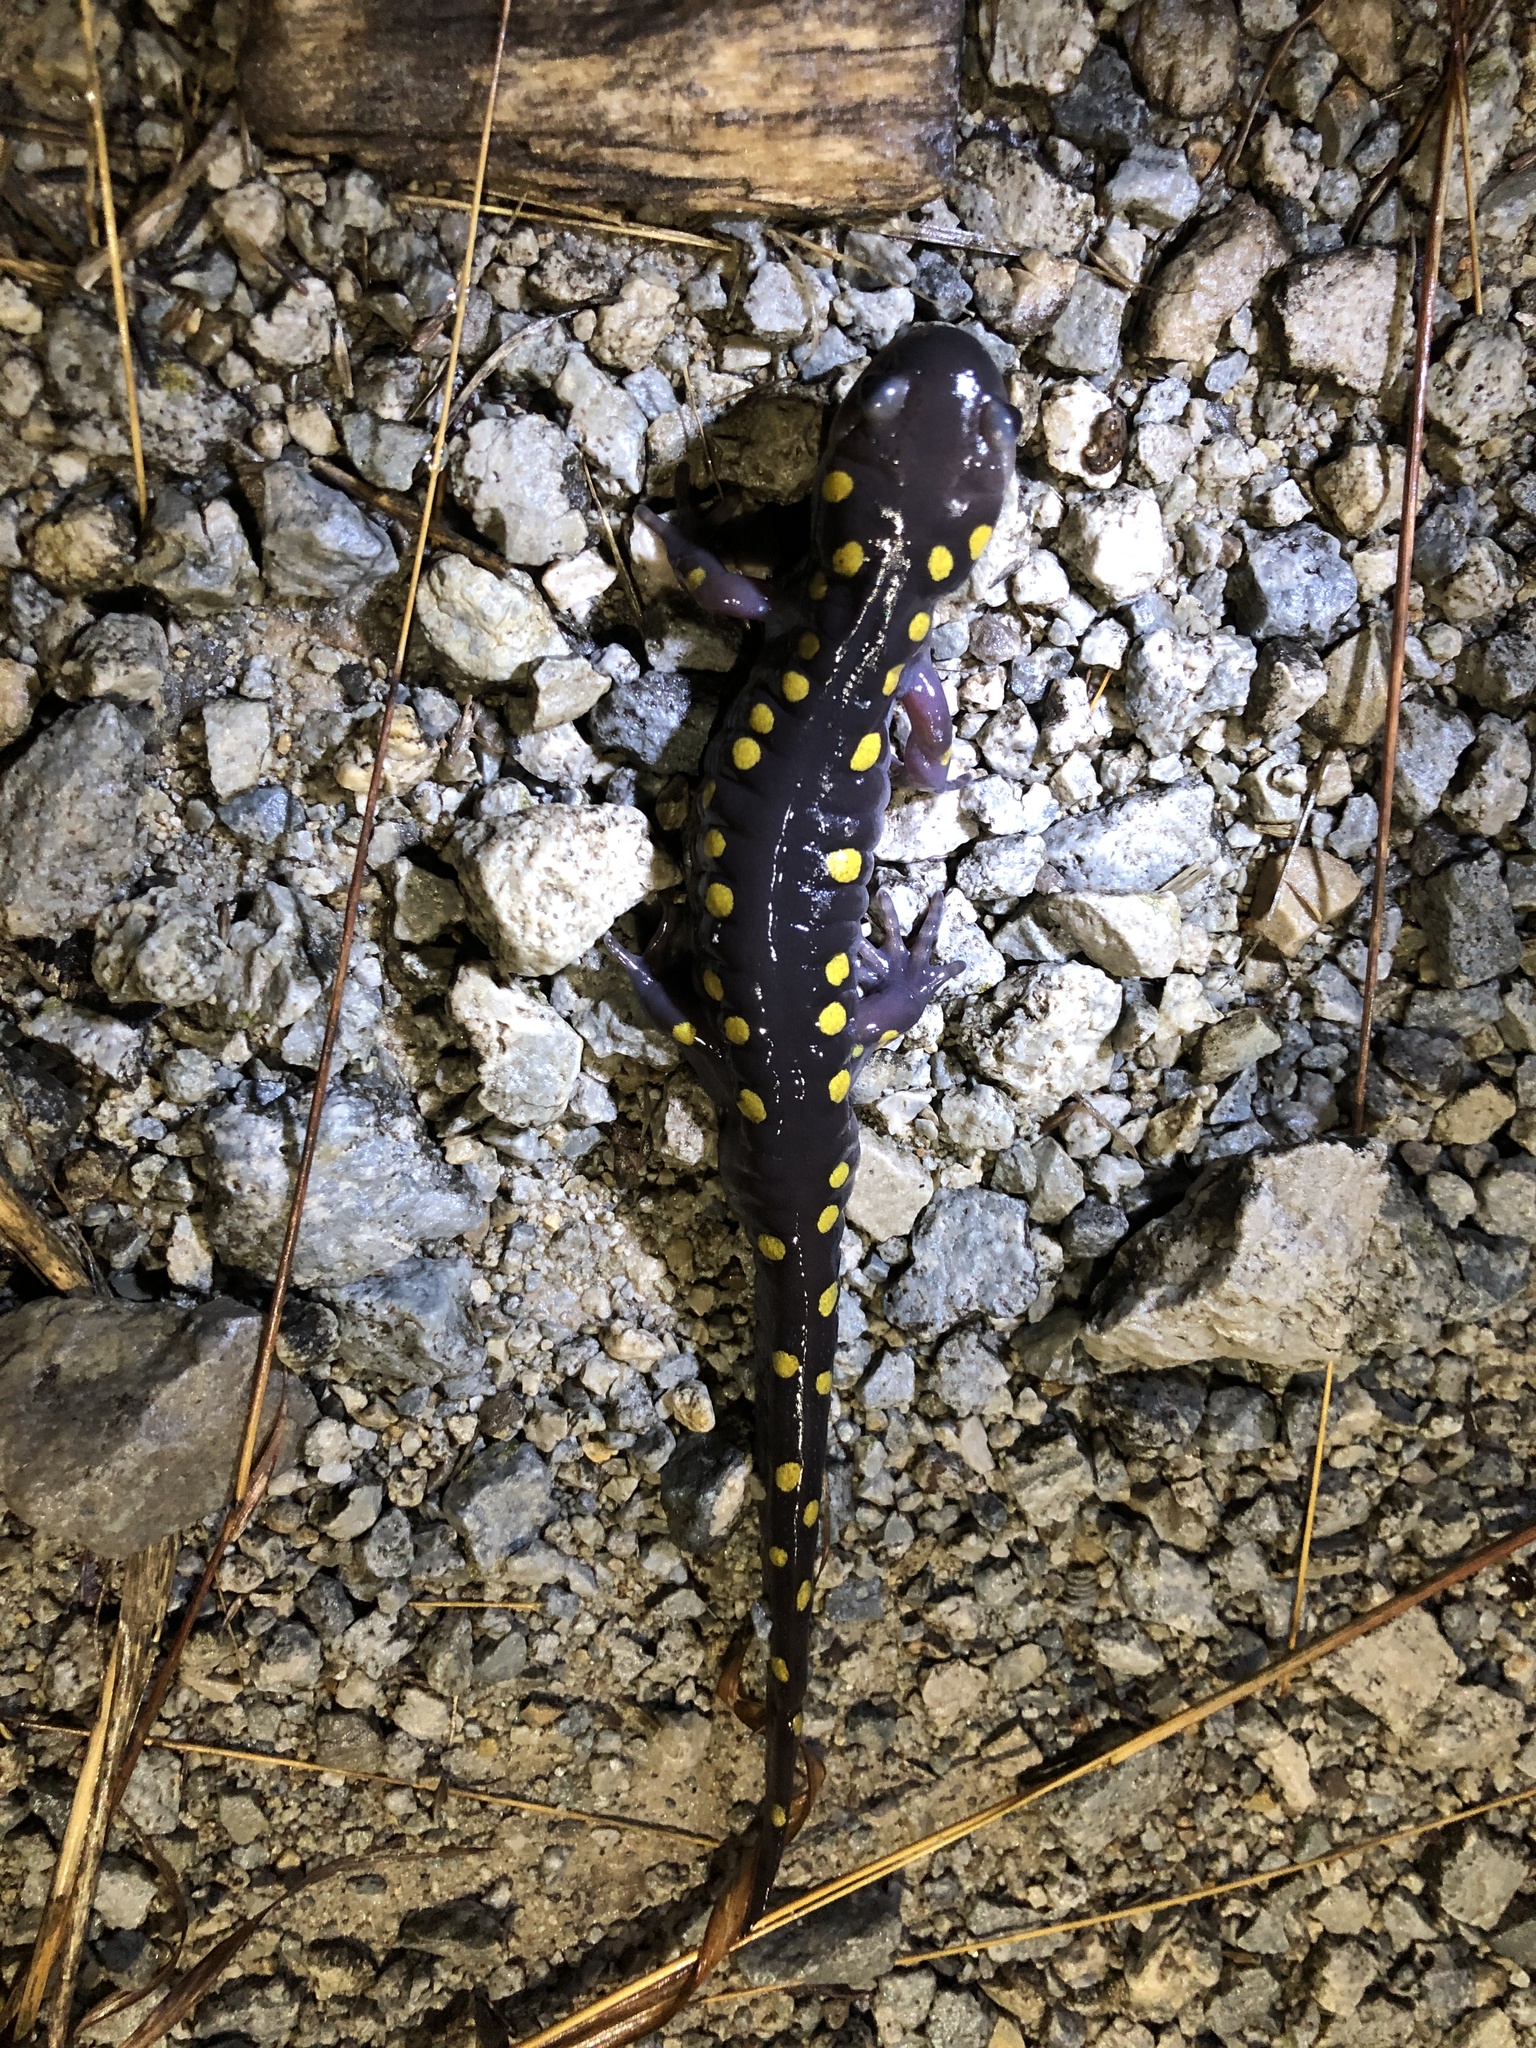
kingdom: Animalia
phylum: Chordata
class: Amphibia
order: Caudata
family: Ambystomatidae
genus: Ambystoma
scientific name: Ambystoma maculatum
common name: Spotted salamander
